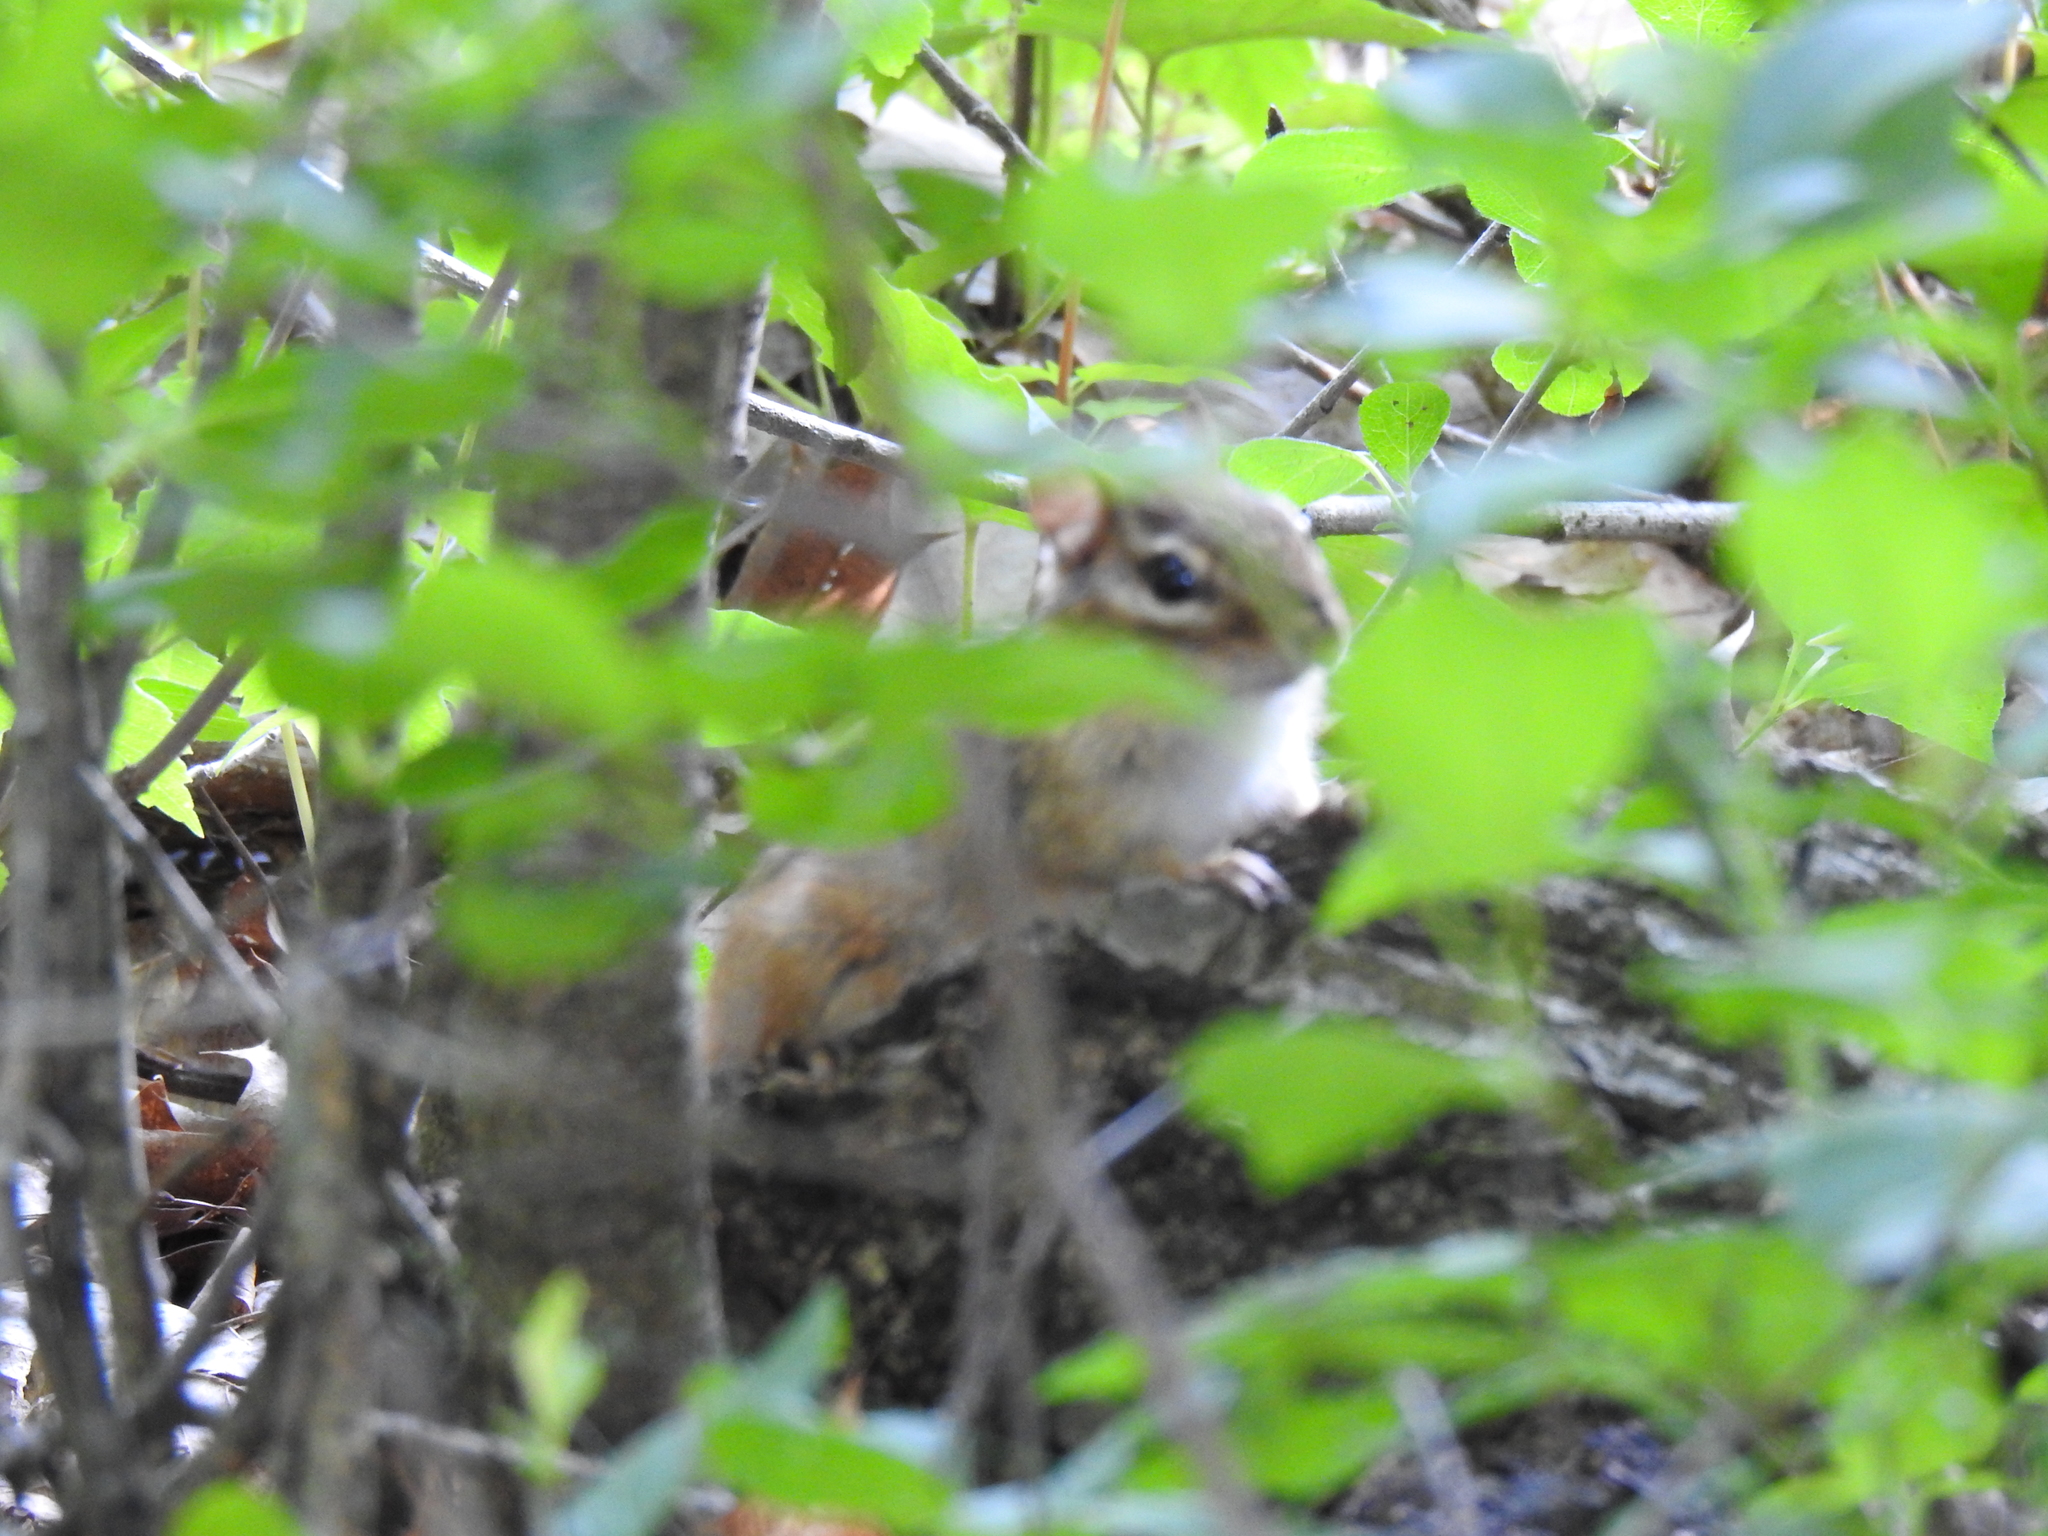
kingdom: Animalia
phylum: Chordata
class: Mammalia
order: Rodentia
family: Sciuridae
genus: Tamias
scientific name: Tamias striatus
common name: Eastern chipmunk
